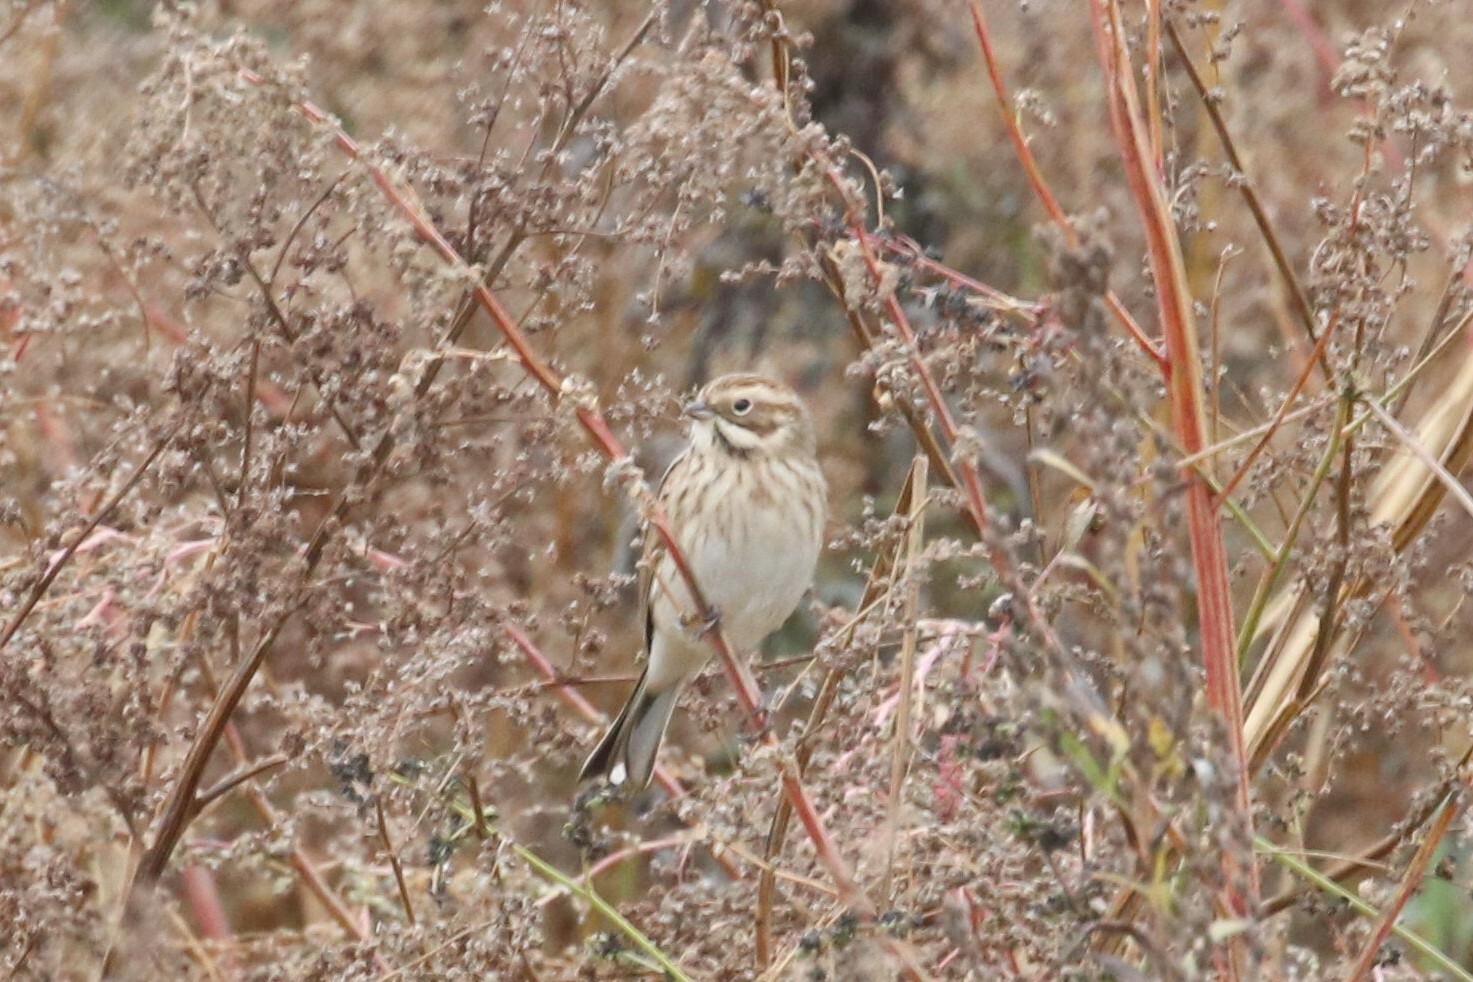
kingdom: Animalia
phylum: Chordata
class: Aves
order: Passeriformes
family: Emberizidae
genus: Emberiza
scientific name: Emberiza schoeniclus
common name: Reed bunting
